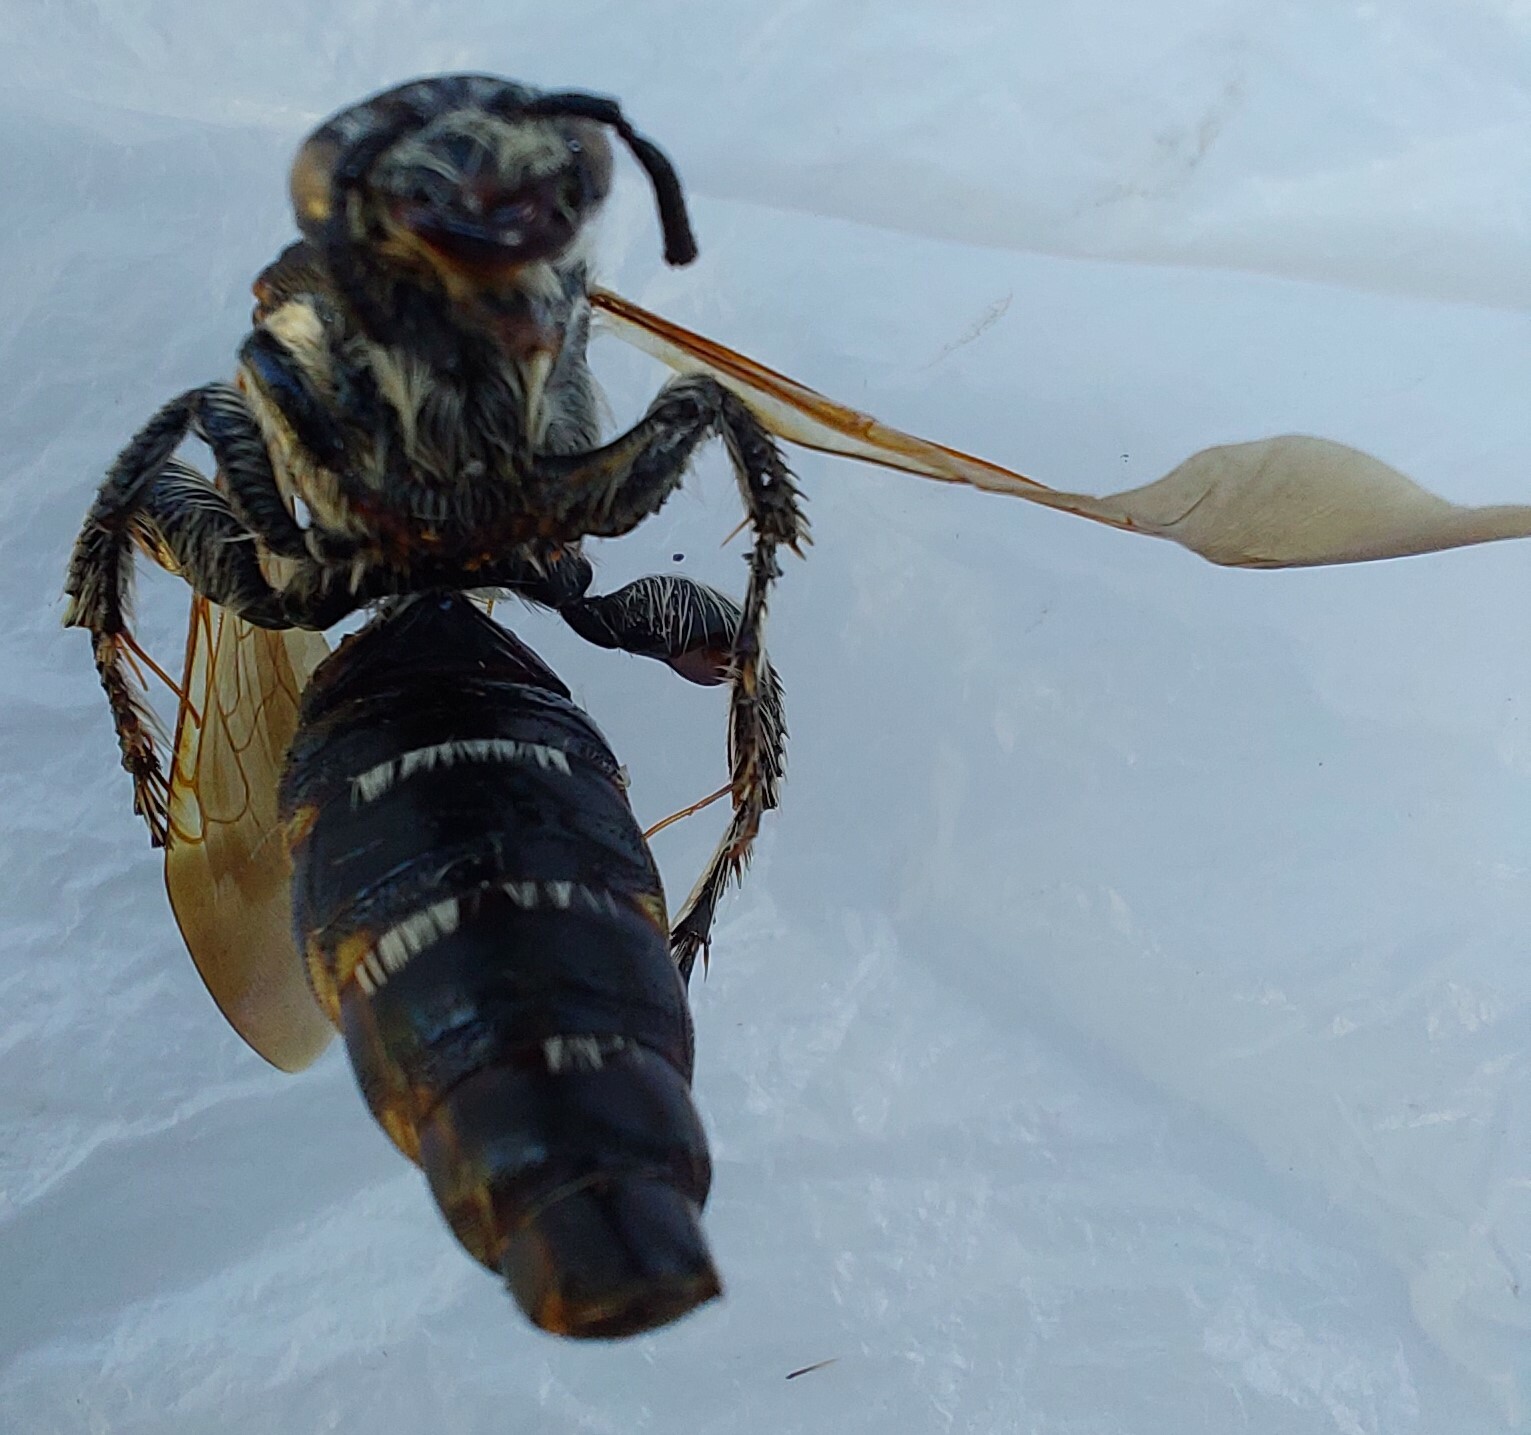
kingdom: Animalia
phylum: Arthropoda
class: Insecta
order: Hymenoptera
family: Scoliidae
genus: Radumeris
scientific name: Radumeris tasmaniensis
